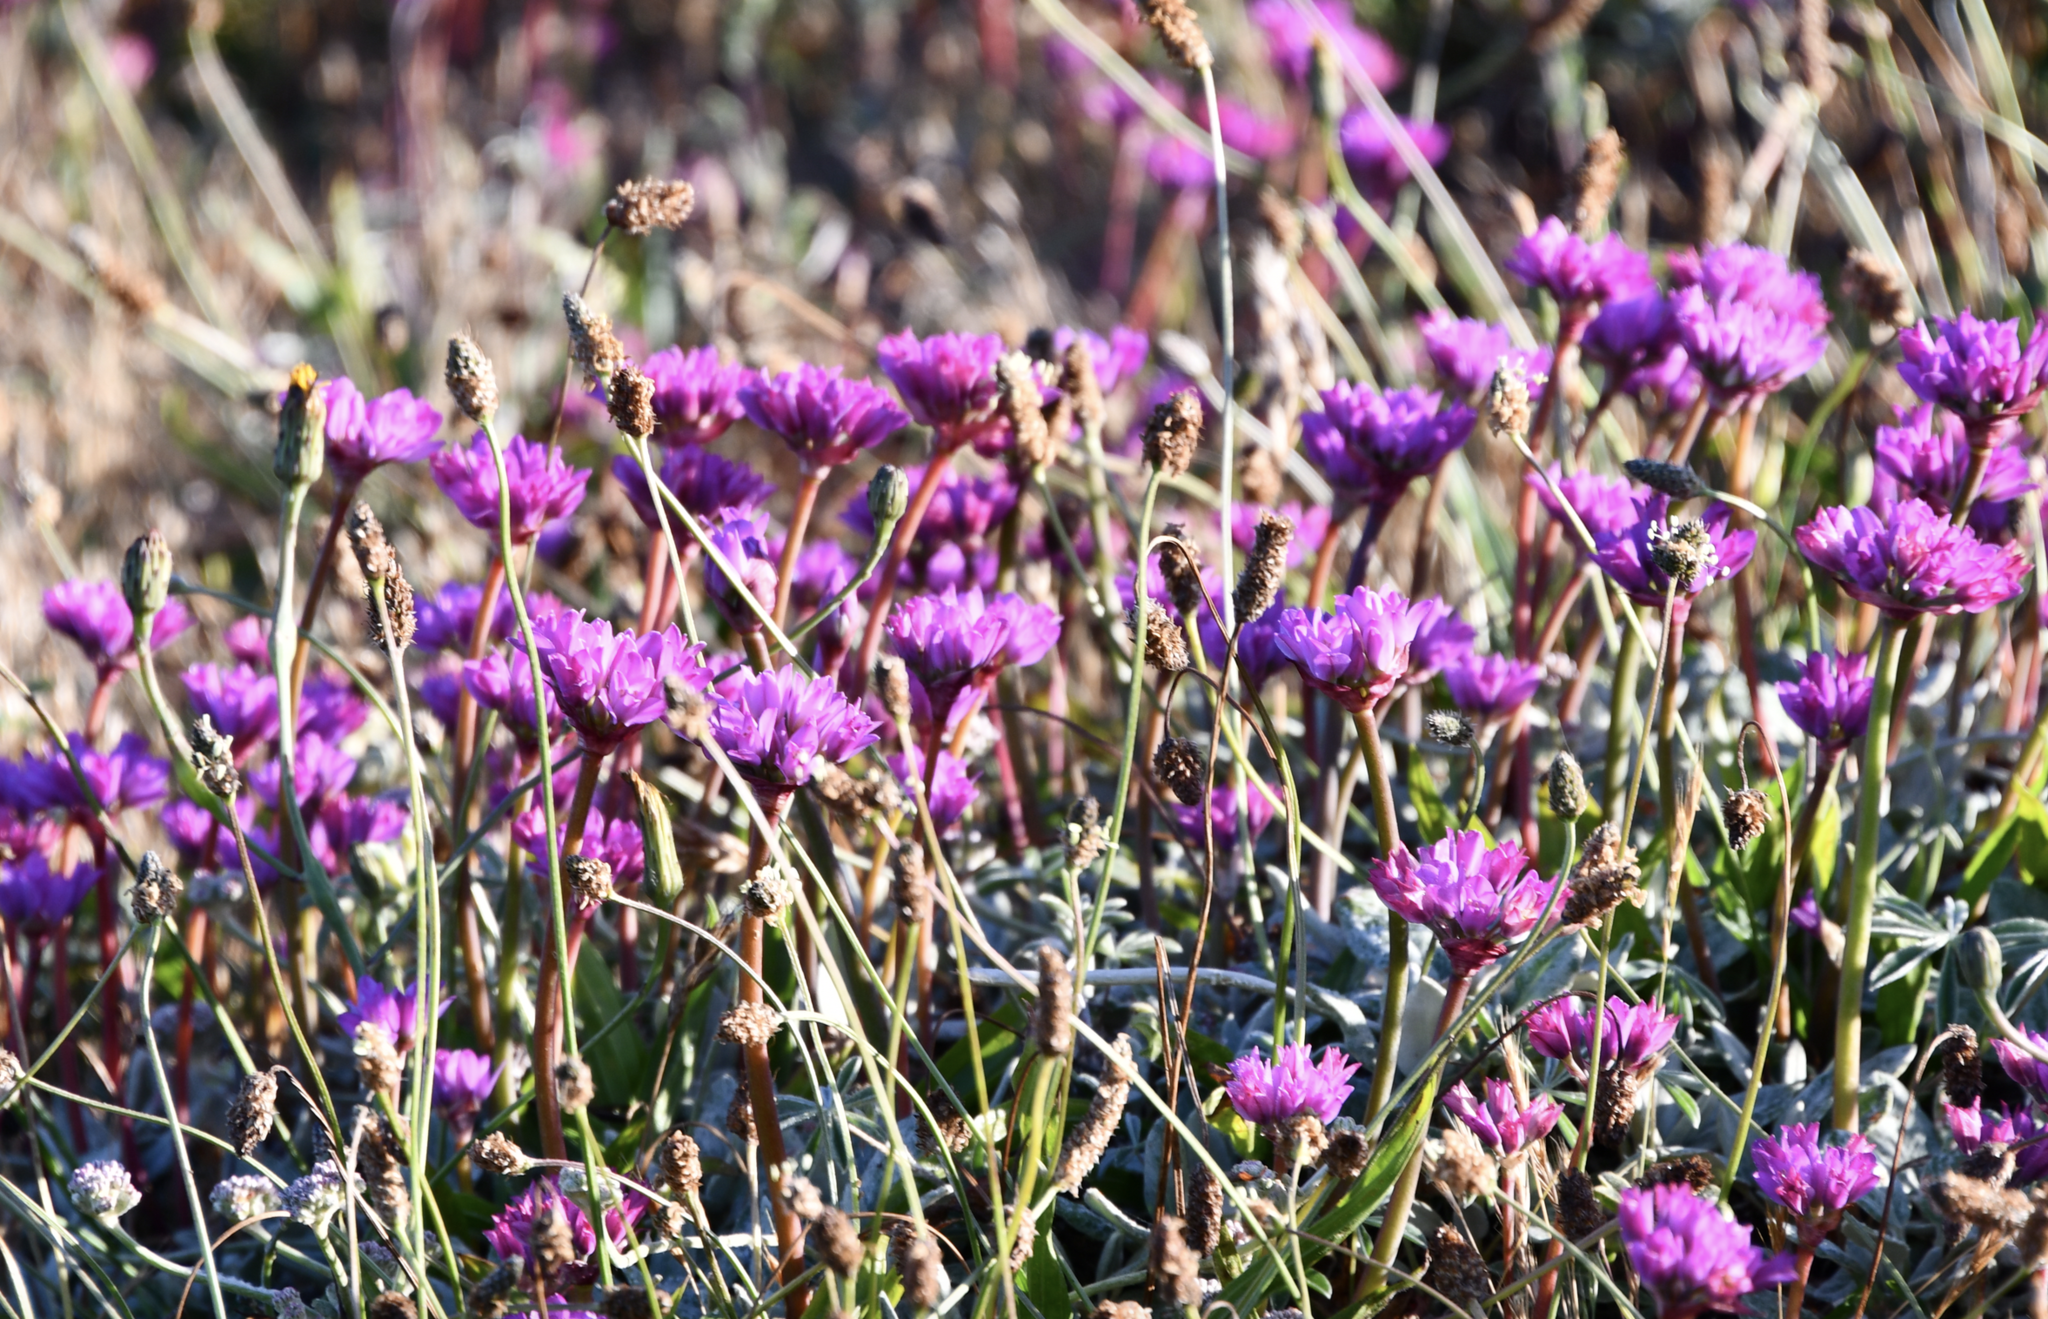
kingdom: Plantae
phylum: Tracheophyta
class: Liliopsida
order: Asparagales
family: Amaryllidaceae
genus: Allium
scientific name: Allium dichlamydeum
